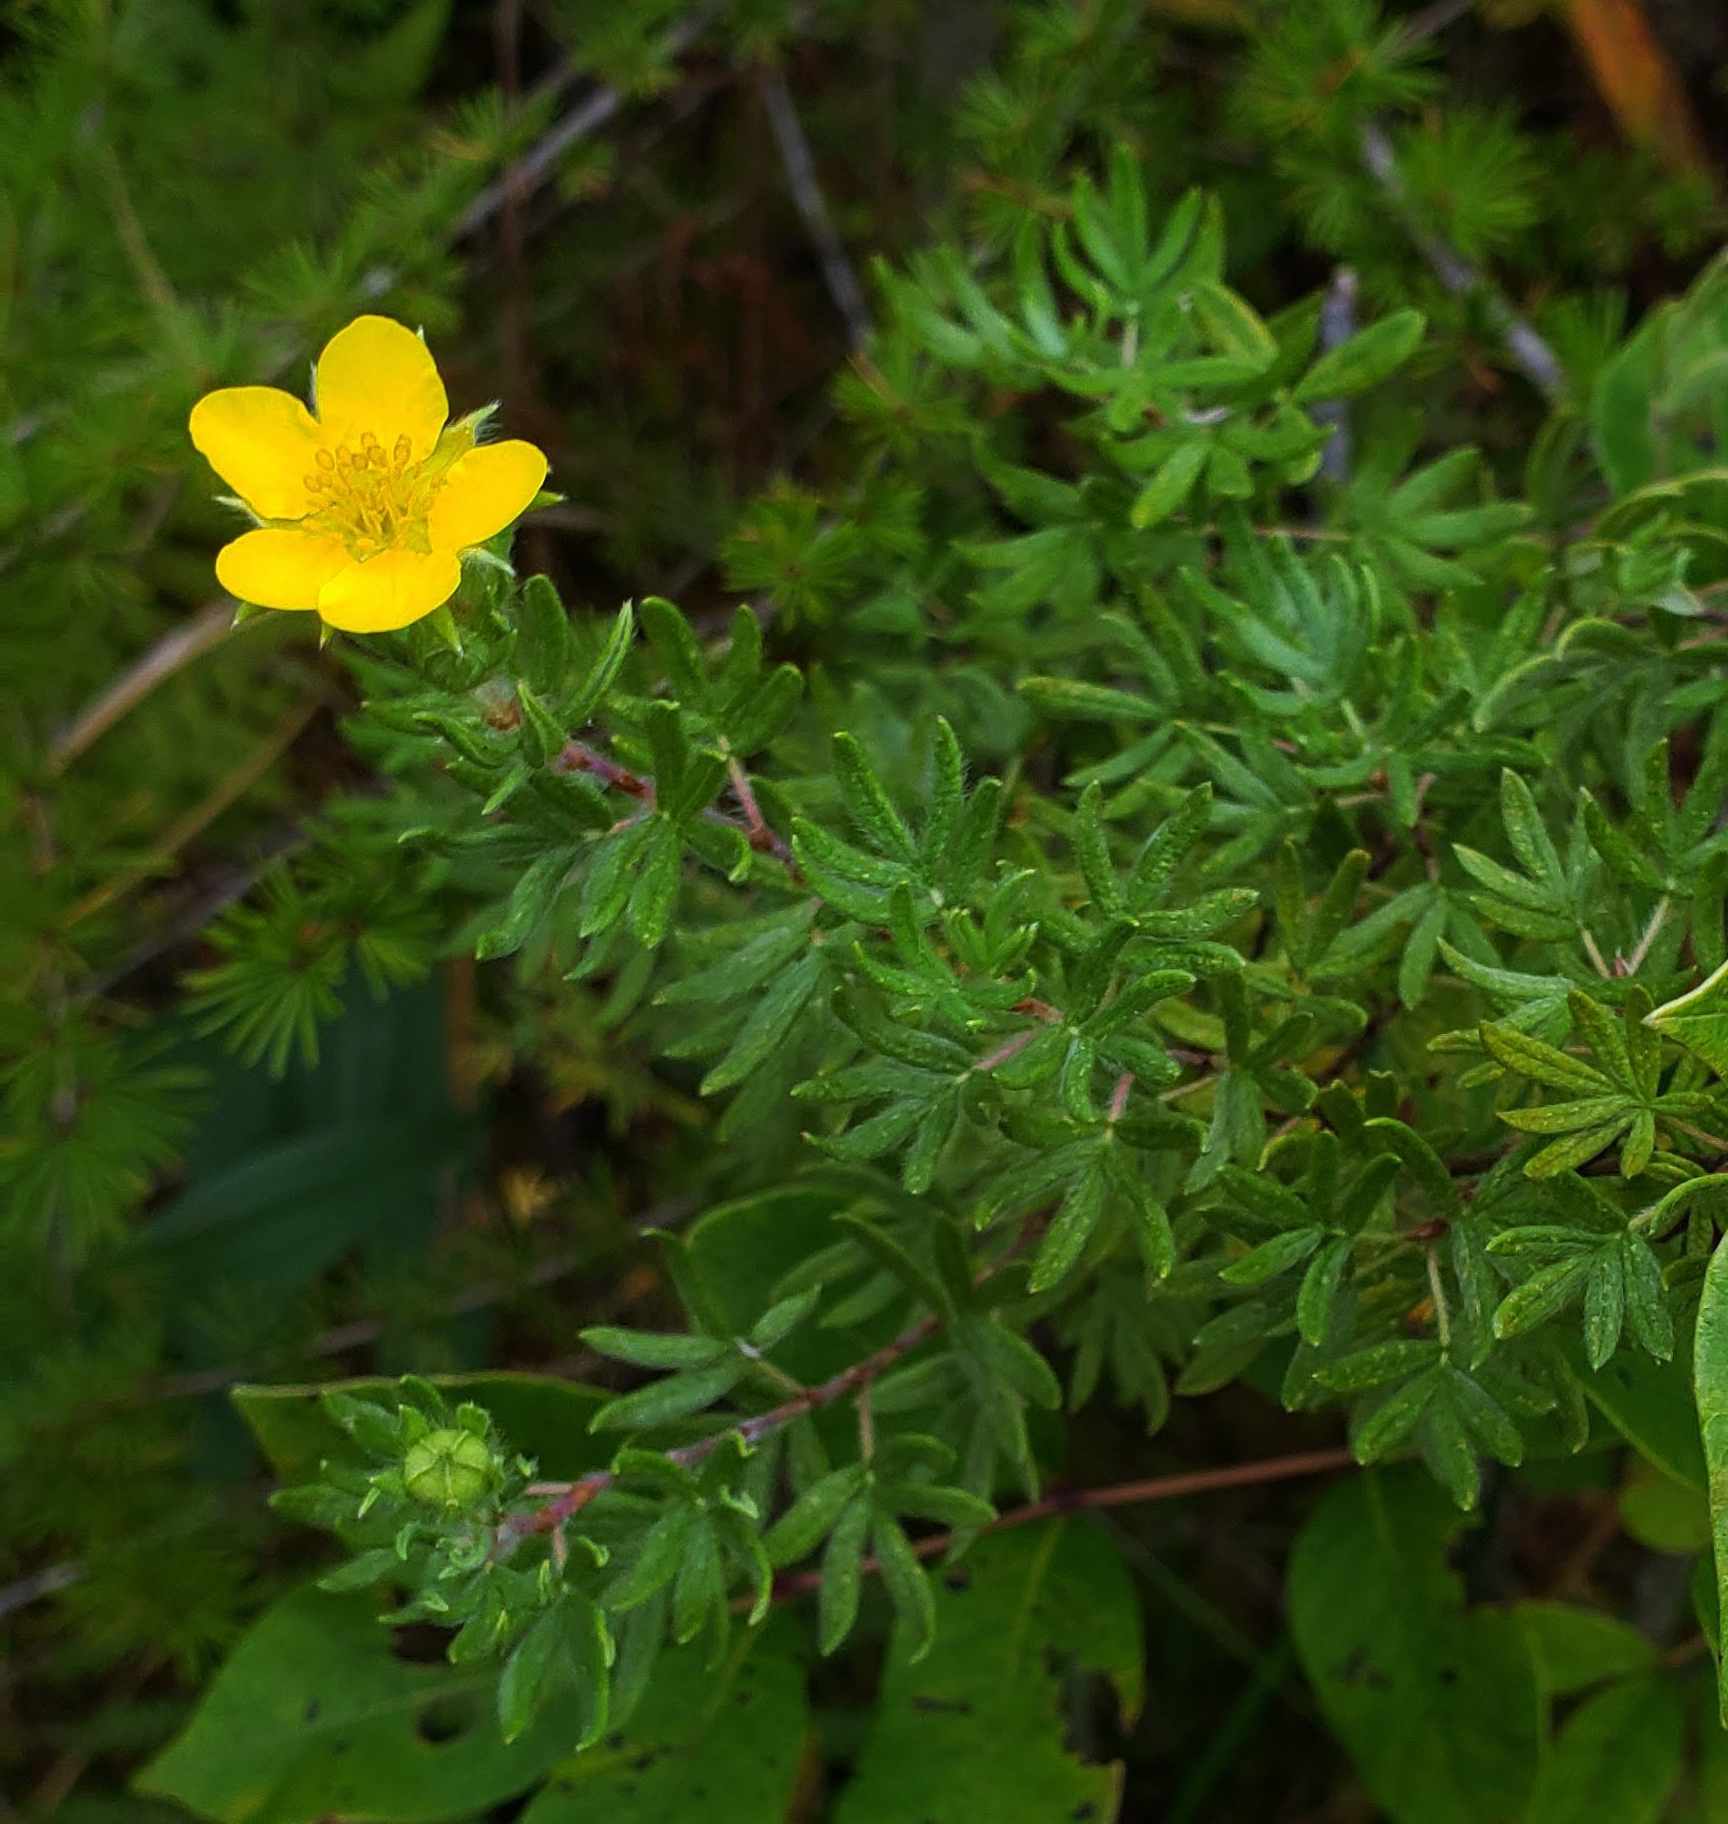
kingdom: Plantae
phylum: Tracheophyta
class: Magnoliopsida
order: Rosales
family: Rosaceae
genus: Dasiphora
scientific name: Dasiphora fruticosa
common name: Shrubby cinquefoil
